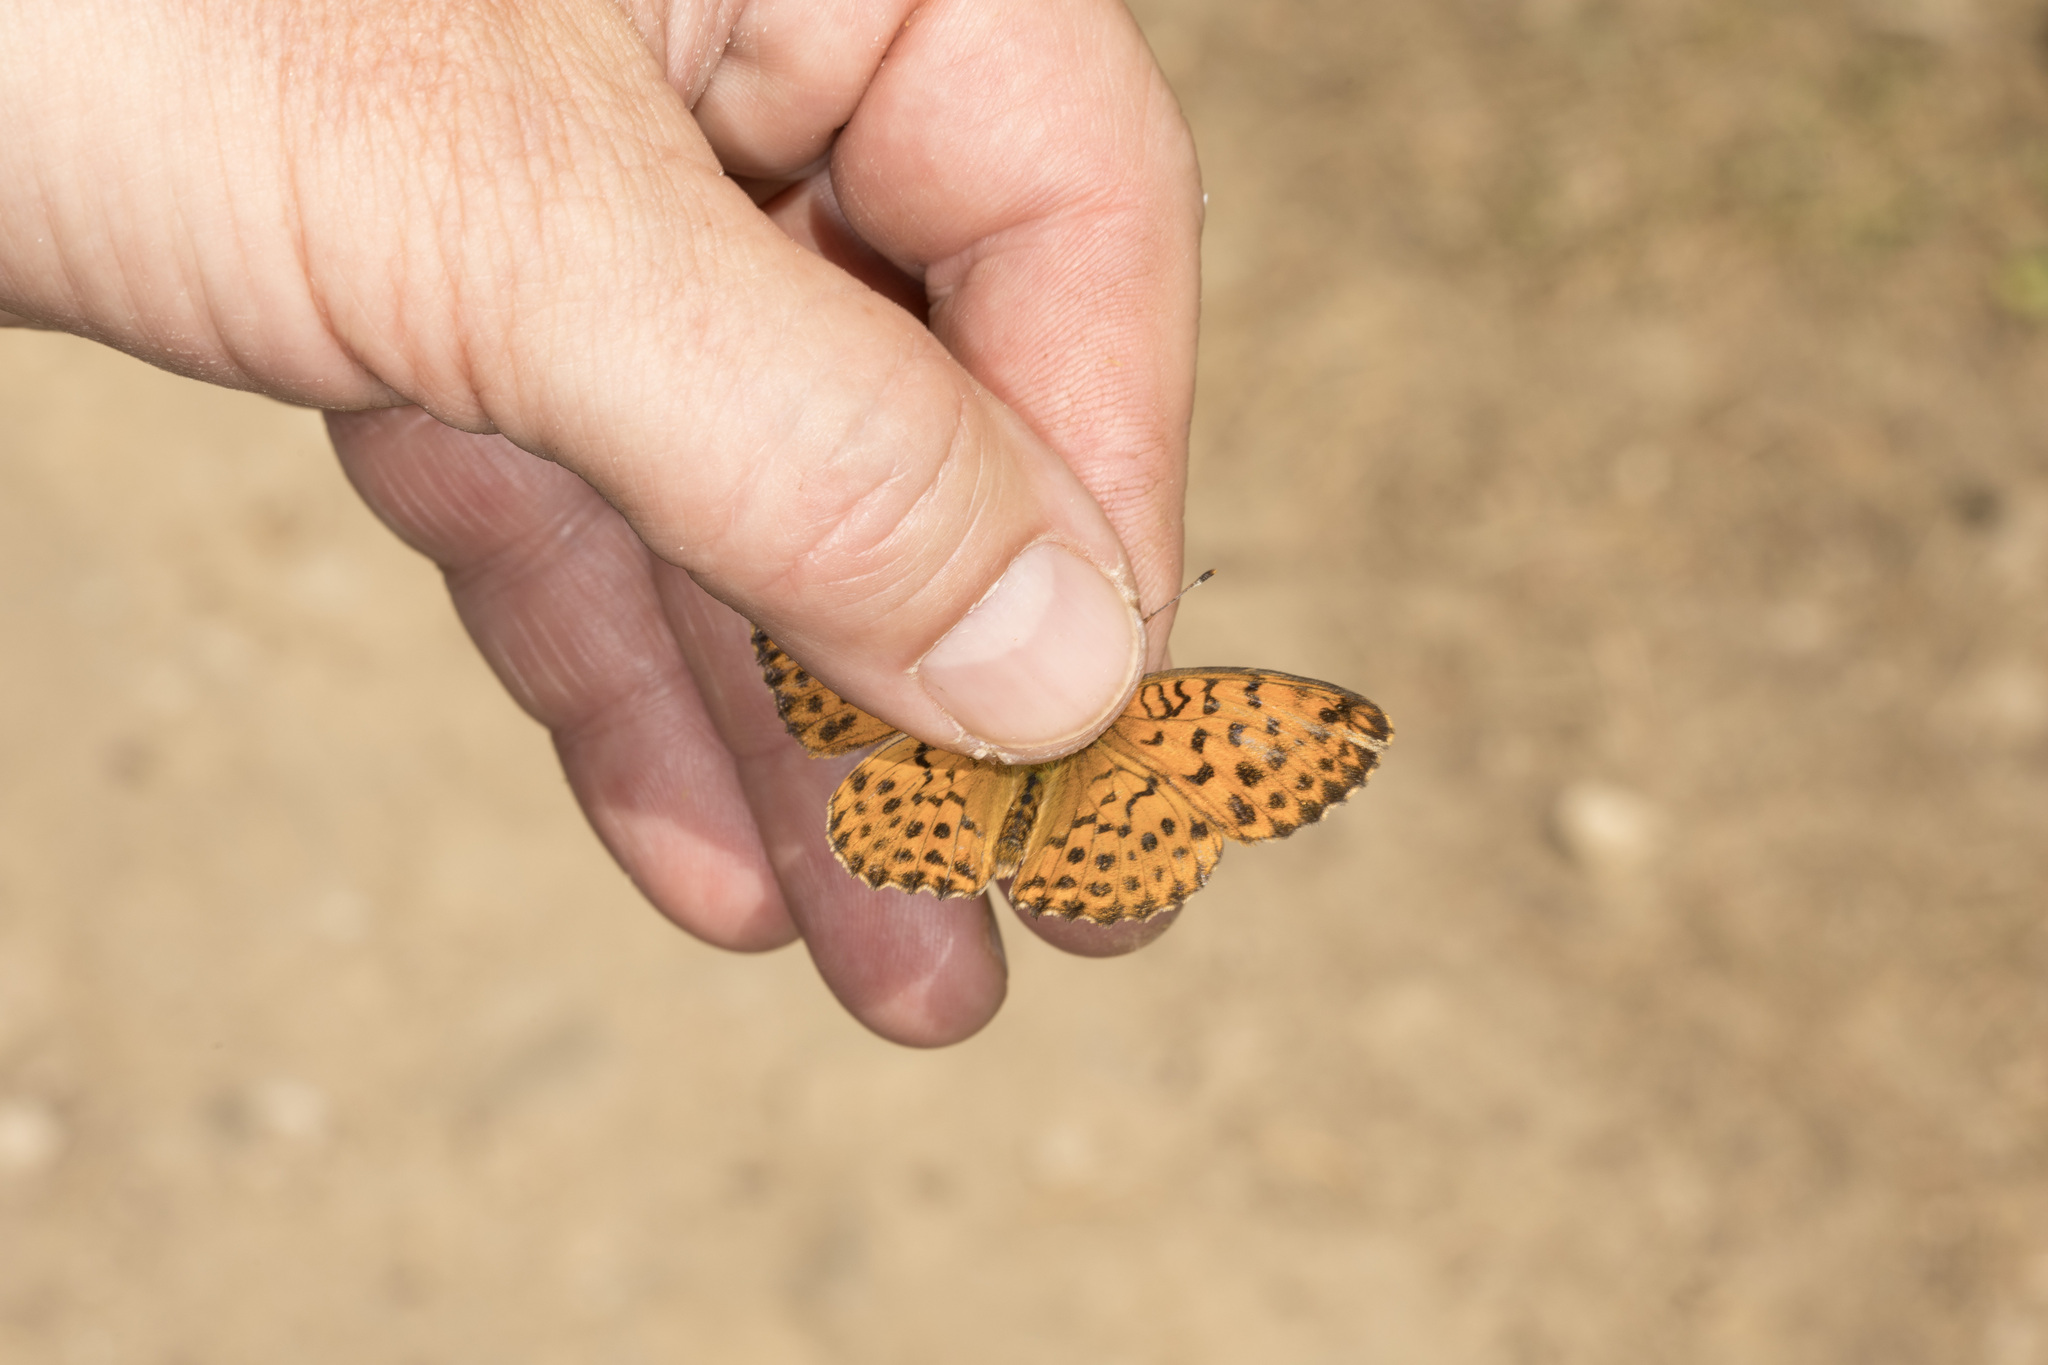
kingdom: Animalia
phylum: Arthropoda
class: Insecta
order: Lepidoptera
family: Nymphalidae
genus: Brenthis
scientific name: Brenthis daphne
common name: Marbled fritillary
